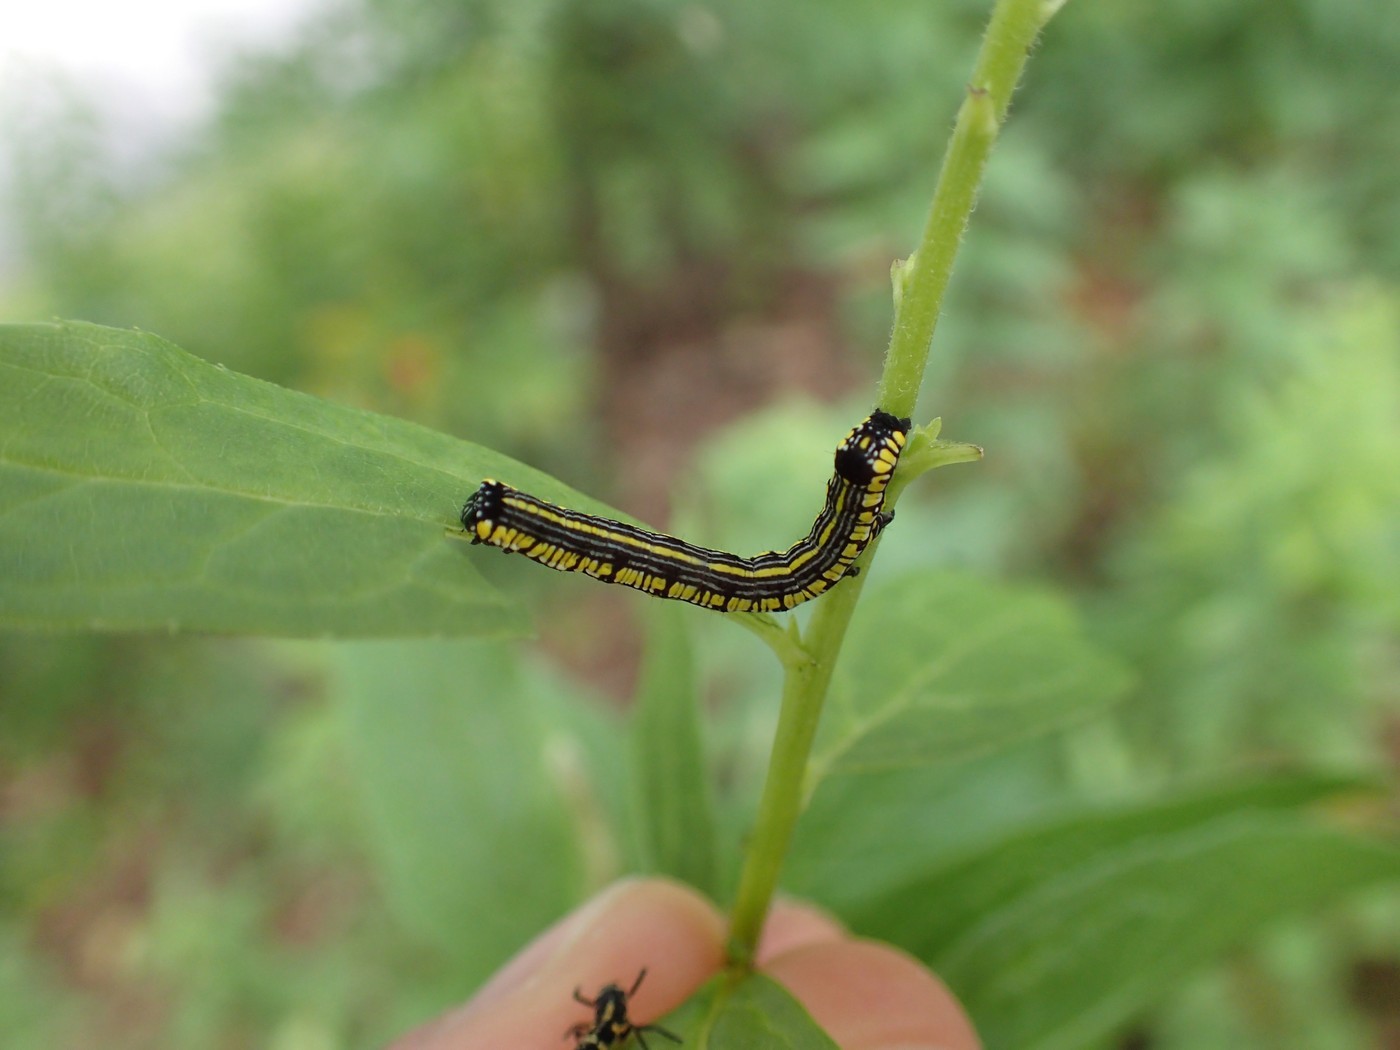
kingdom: Animalia
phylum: Arthropoda
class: Insecta
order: Lepidoptera
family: Noctuidae
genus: Cucullia
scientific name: Cucullia convexipennis
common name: Brown-hooded owlet
